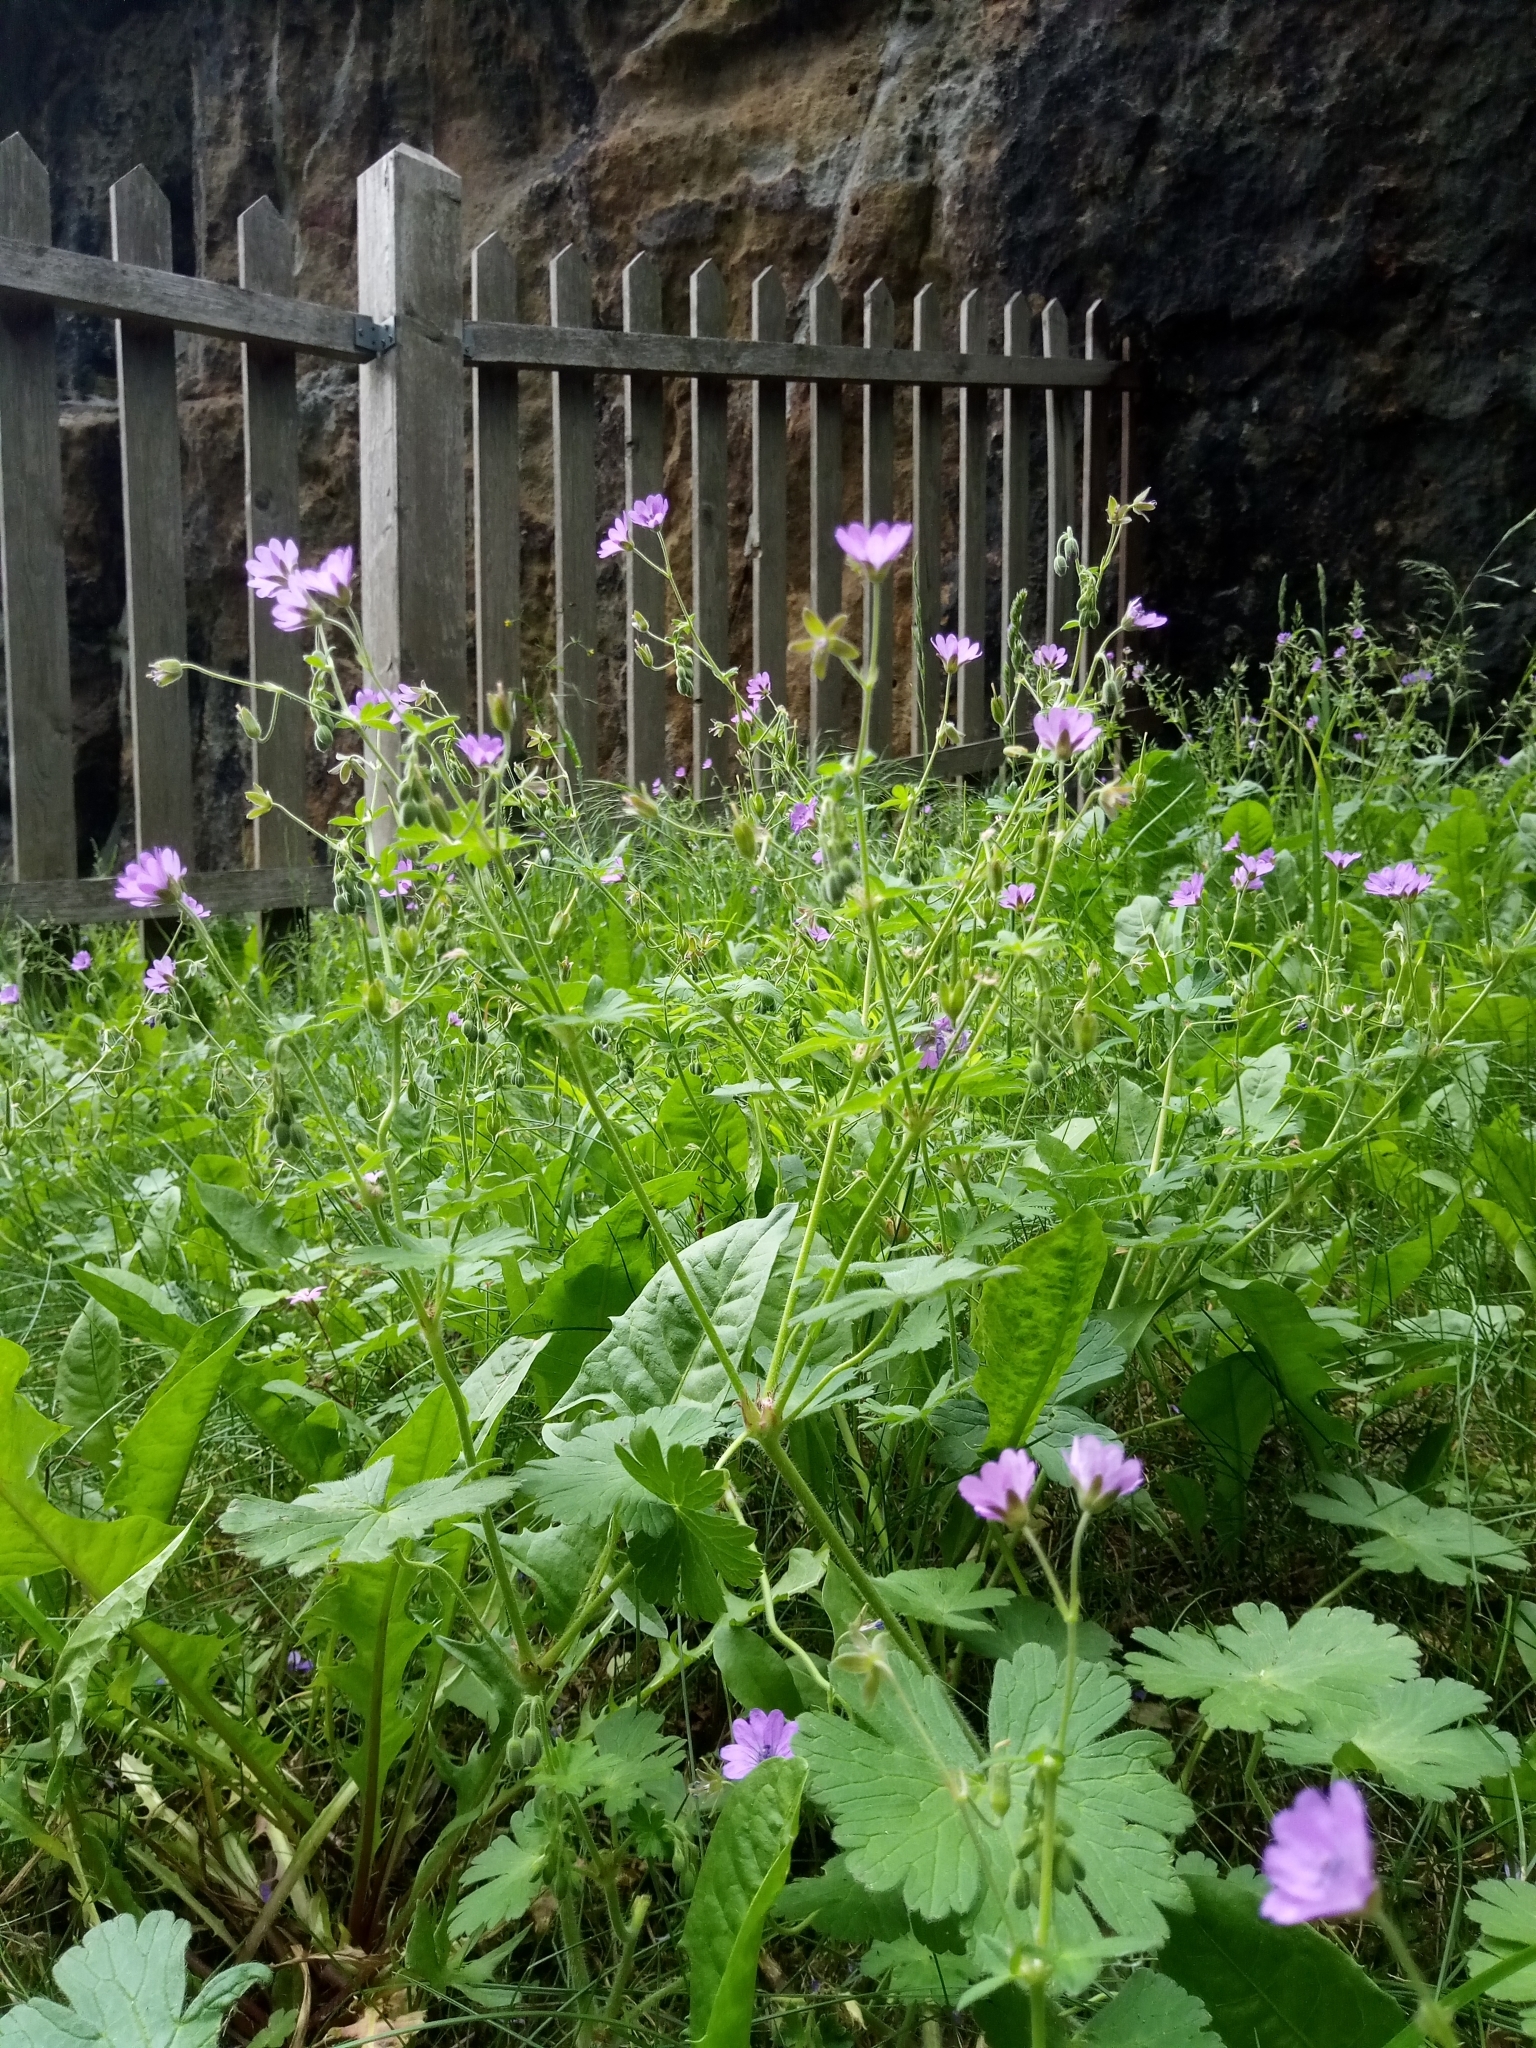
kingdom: Plantae
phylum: Tracheophyta
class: Magnoliopsida
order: Geraniales
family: Geraniaceae
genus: Geranium
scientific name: Geranium pyrenaicum
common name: Hedgerow crane's-bill
